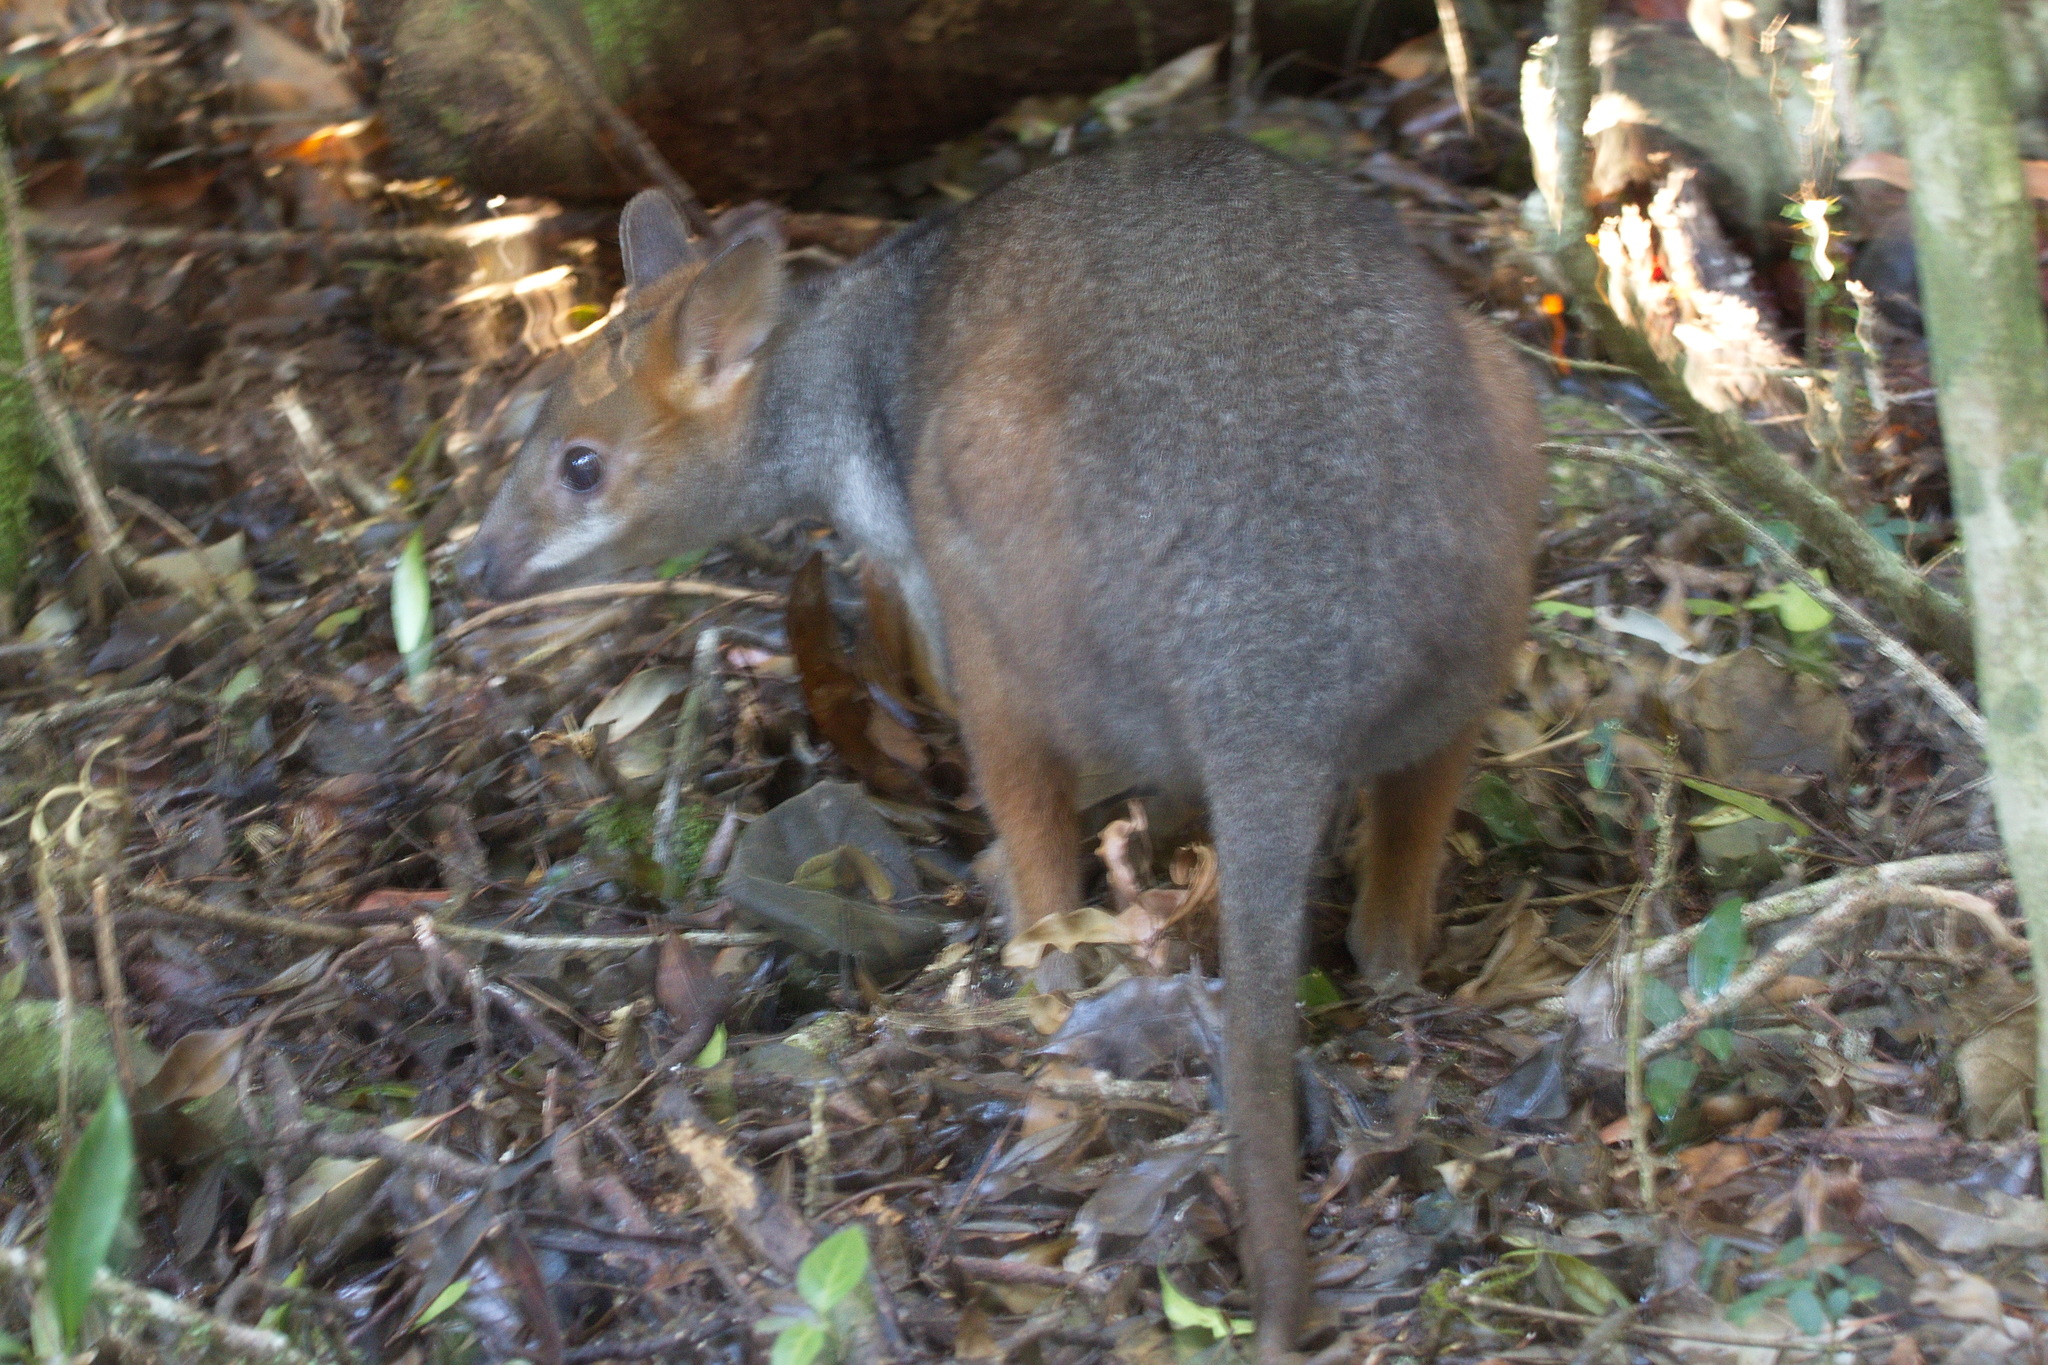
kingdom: Animalia
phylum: Chordata
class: Mammalia
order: Diprotodontia
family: Macropodidae
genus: Thylogale
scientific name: Thylogale stigmatica
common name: Red-legged pademelon
